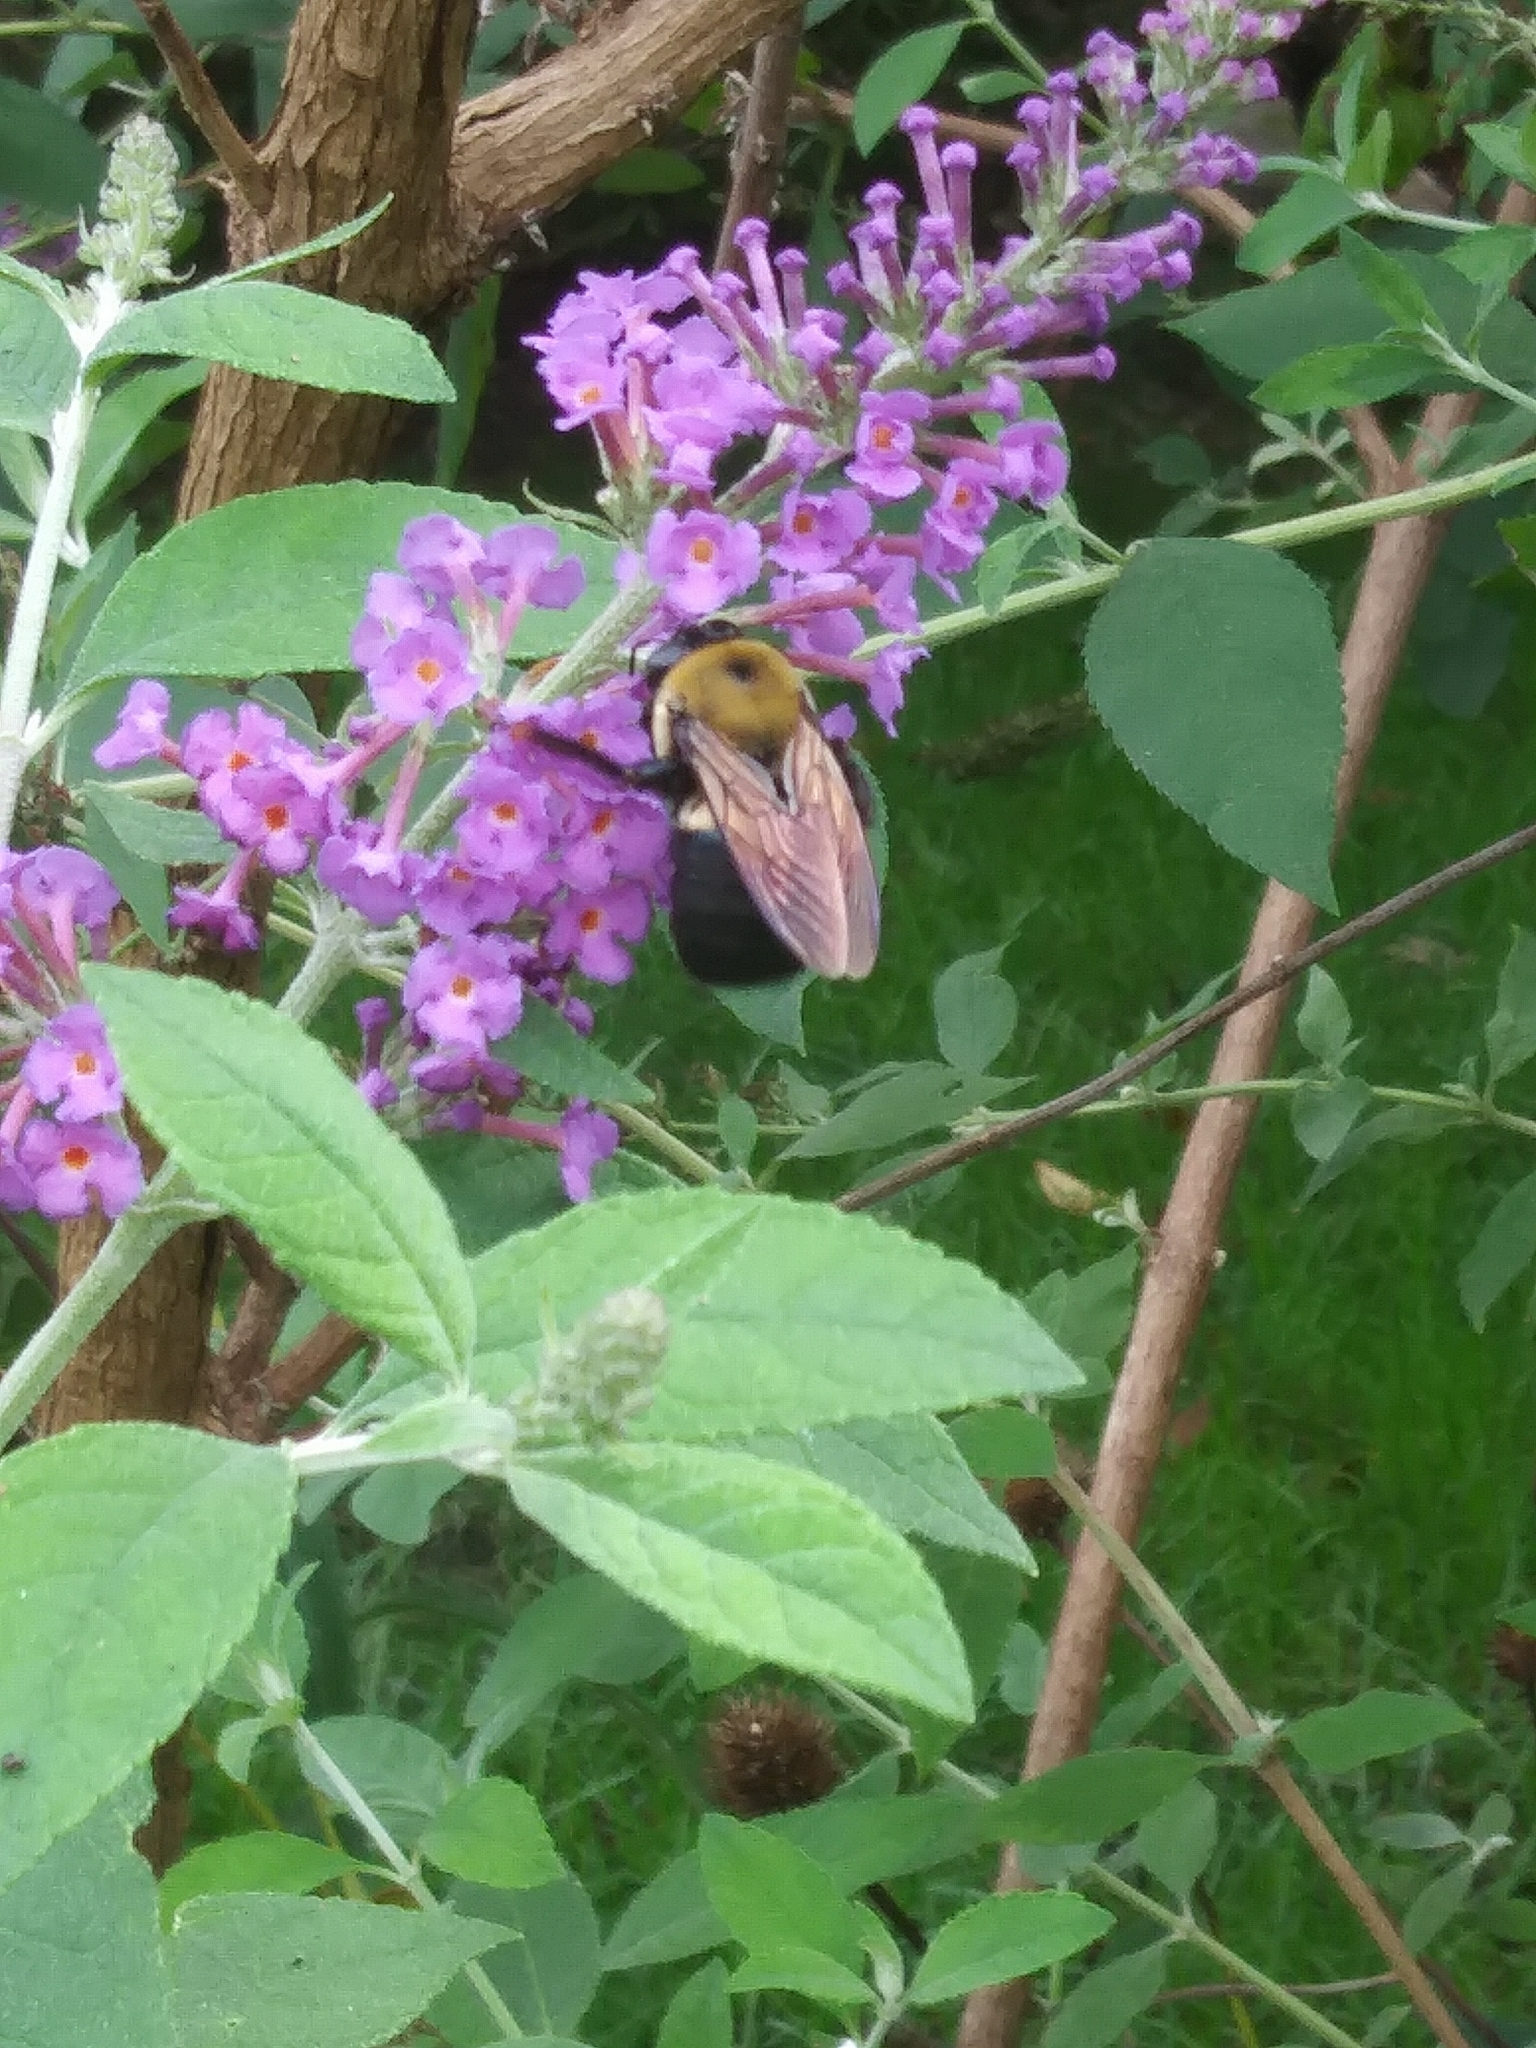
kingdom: Animalia
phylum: Arthropoda
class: Insecta
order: Hymenoptera
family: Apidae
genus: Xylocopa
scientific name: Xylocopa virginica
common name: Carpenter bee
